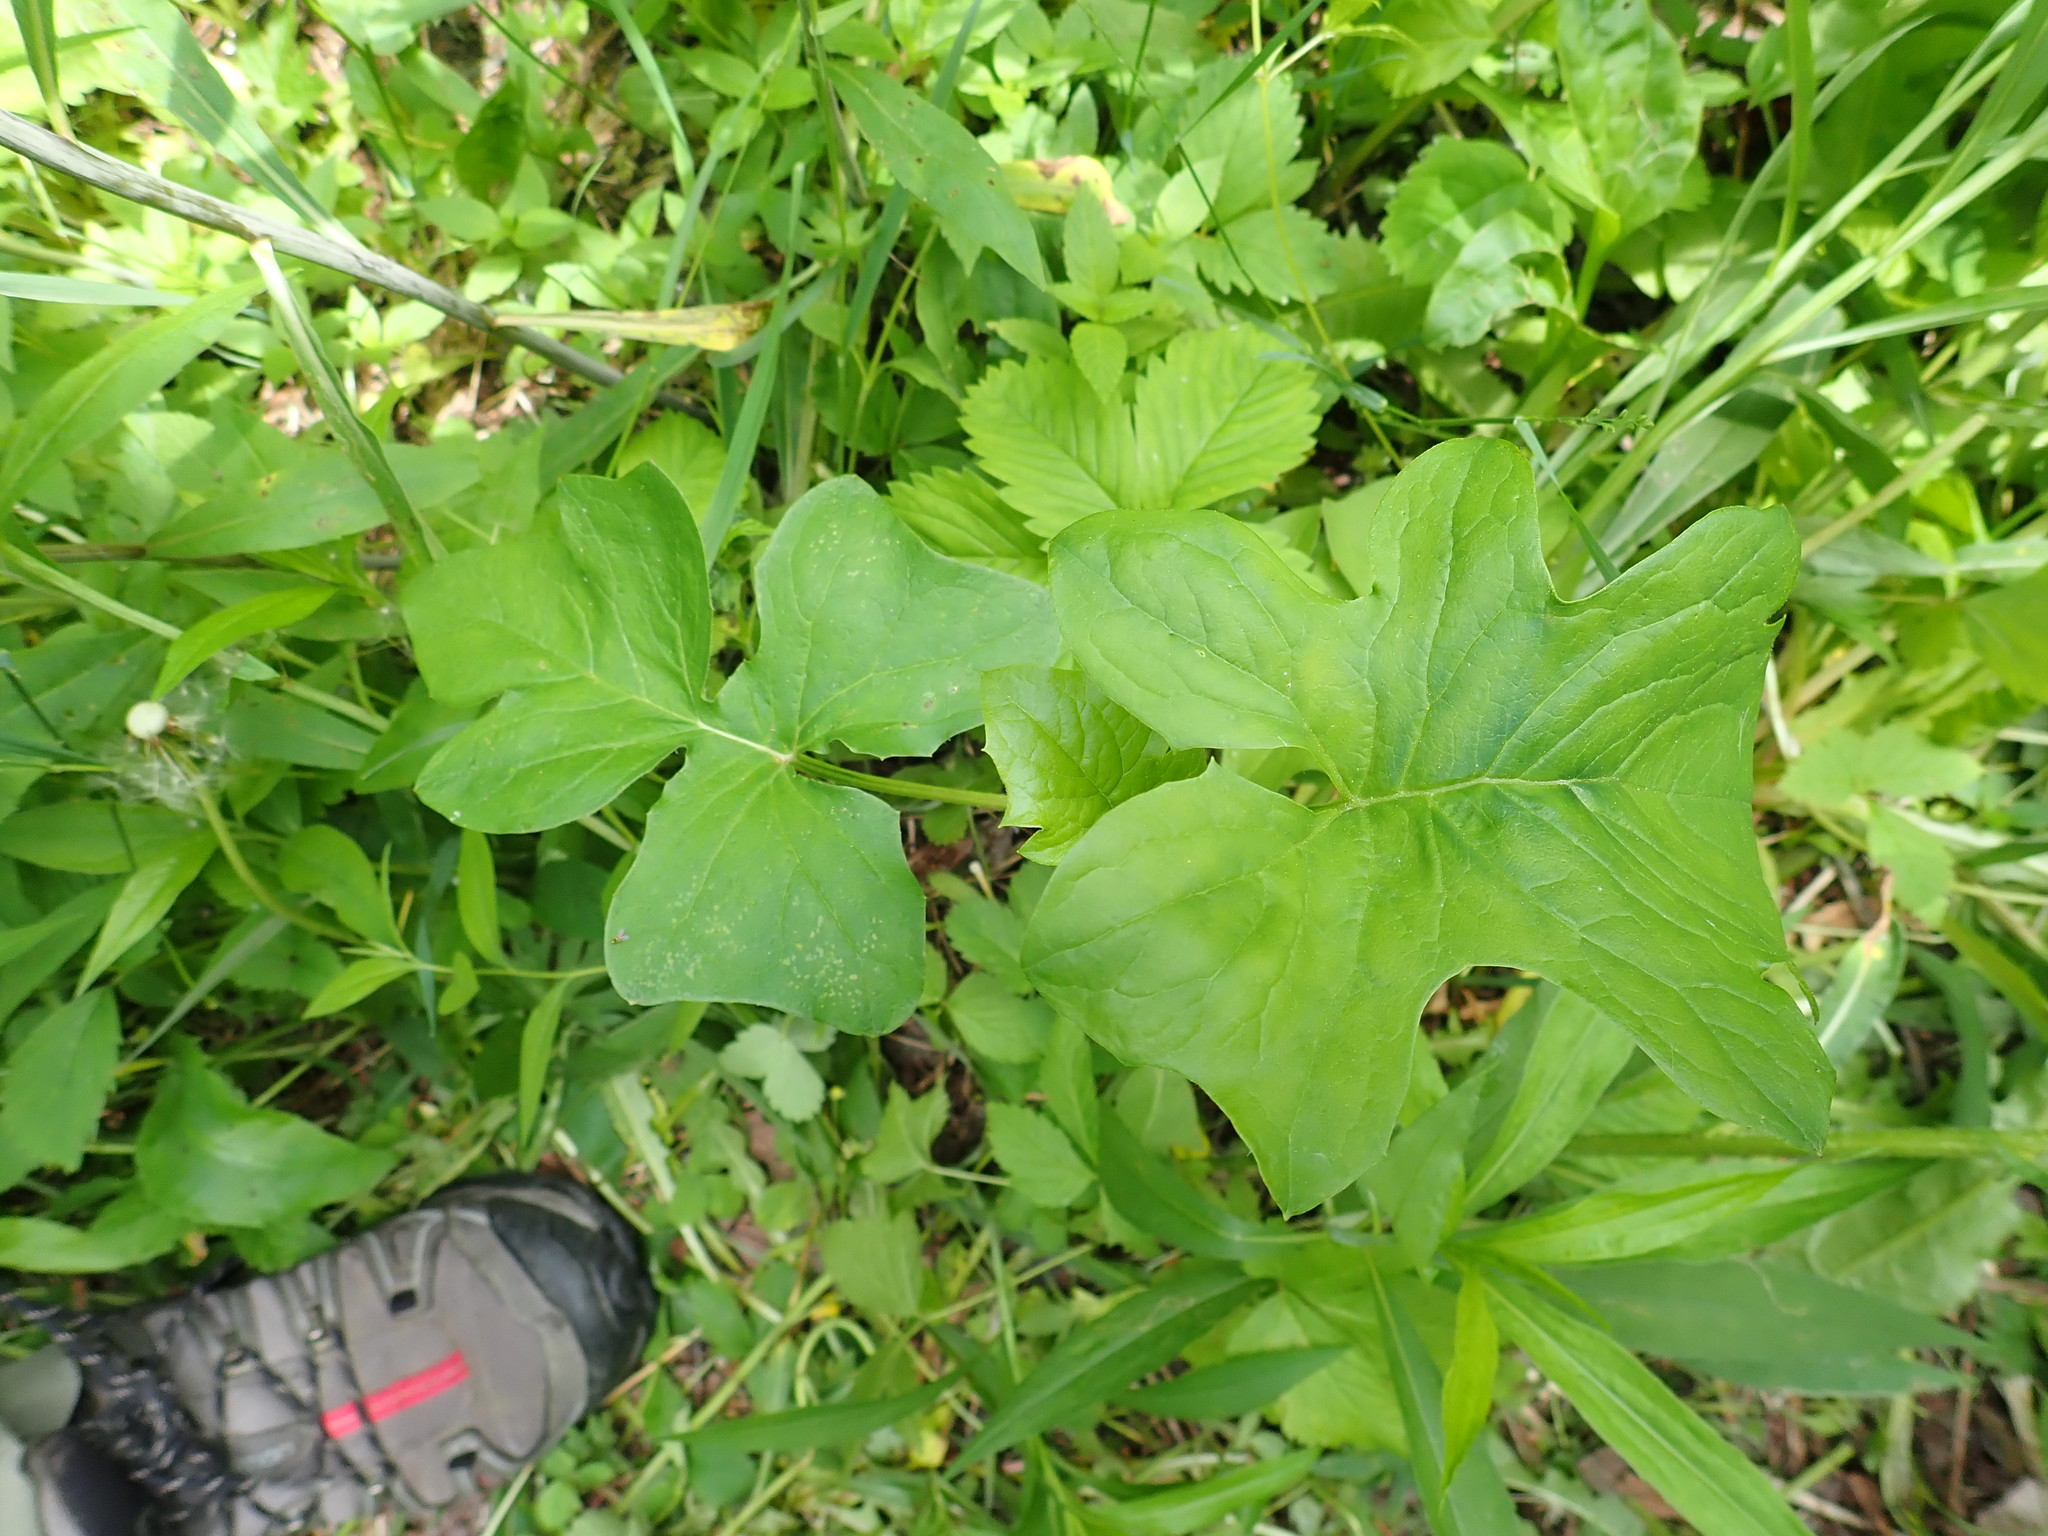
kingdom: Plantae
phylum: Tracheophyta
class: Magnoliopsida
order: Asterales
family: Asteraceae
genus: Nabalus
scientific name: Nabalus albus
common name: White rattlesnakeroot
